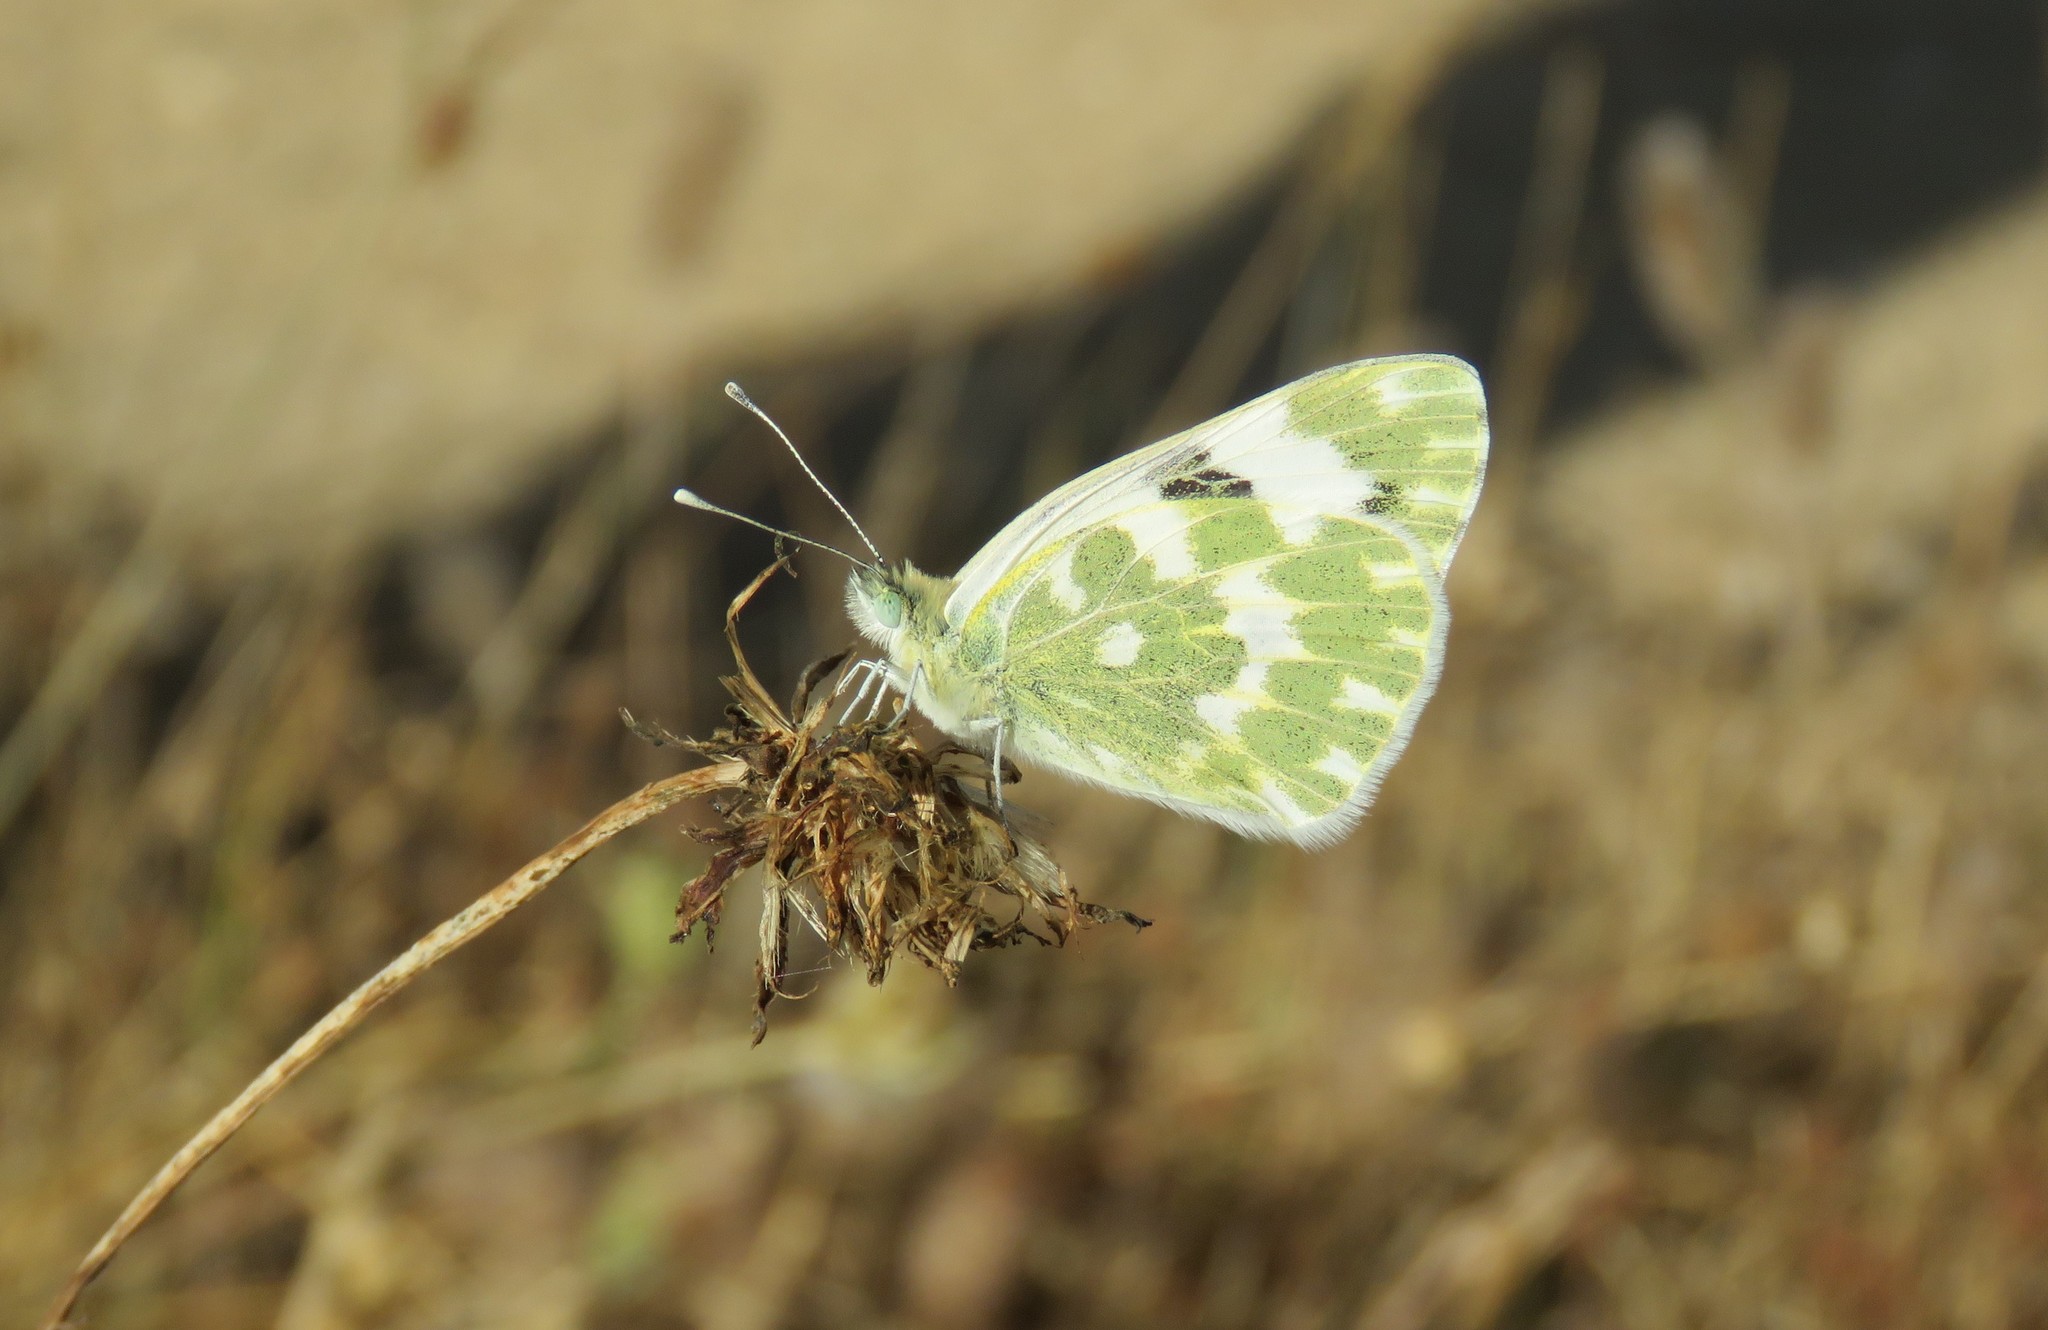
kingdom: Animalia
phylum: Arthropoda
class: Insecta
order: Lepidoptera
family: Pieridae
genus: Pontia
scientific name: Pontia daplidice
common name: Bath white
